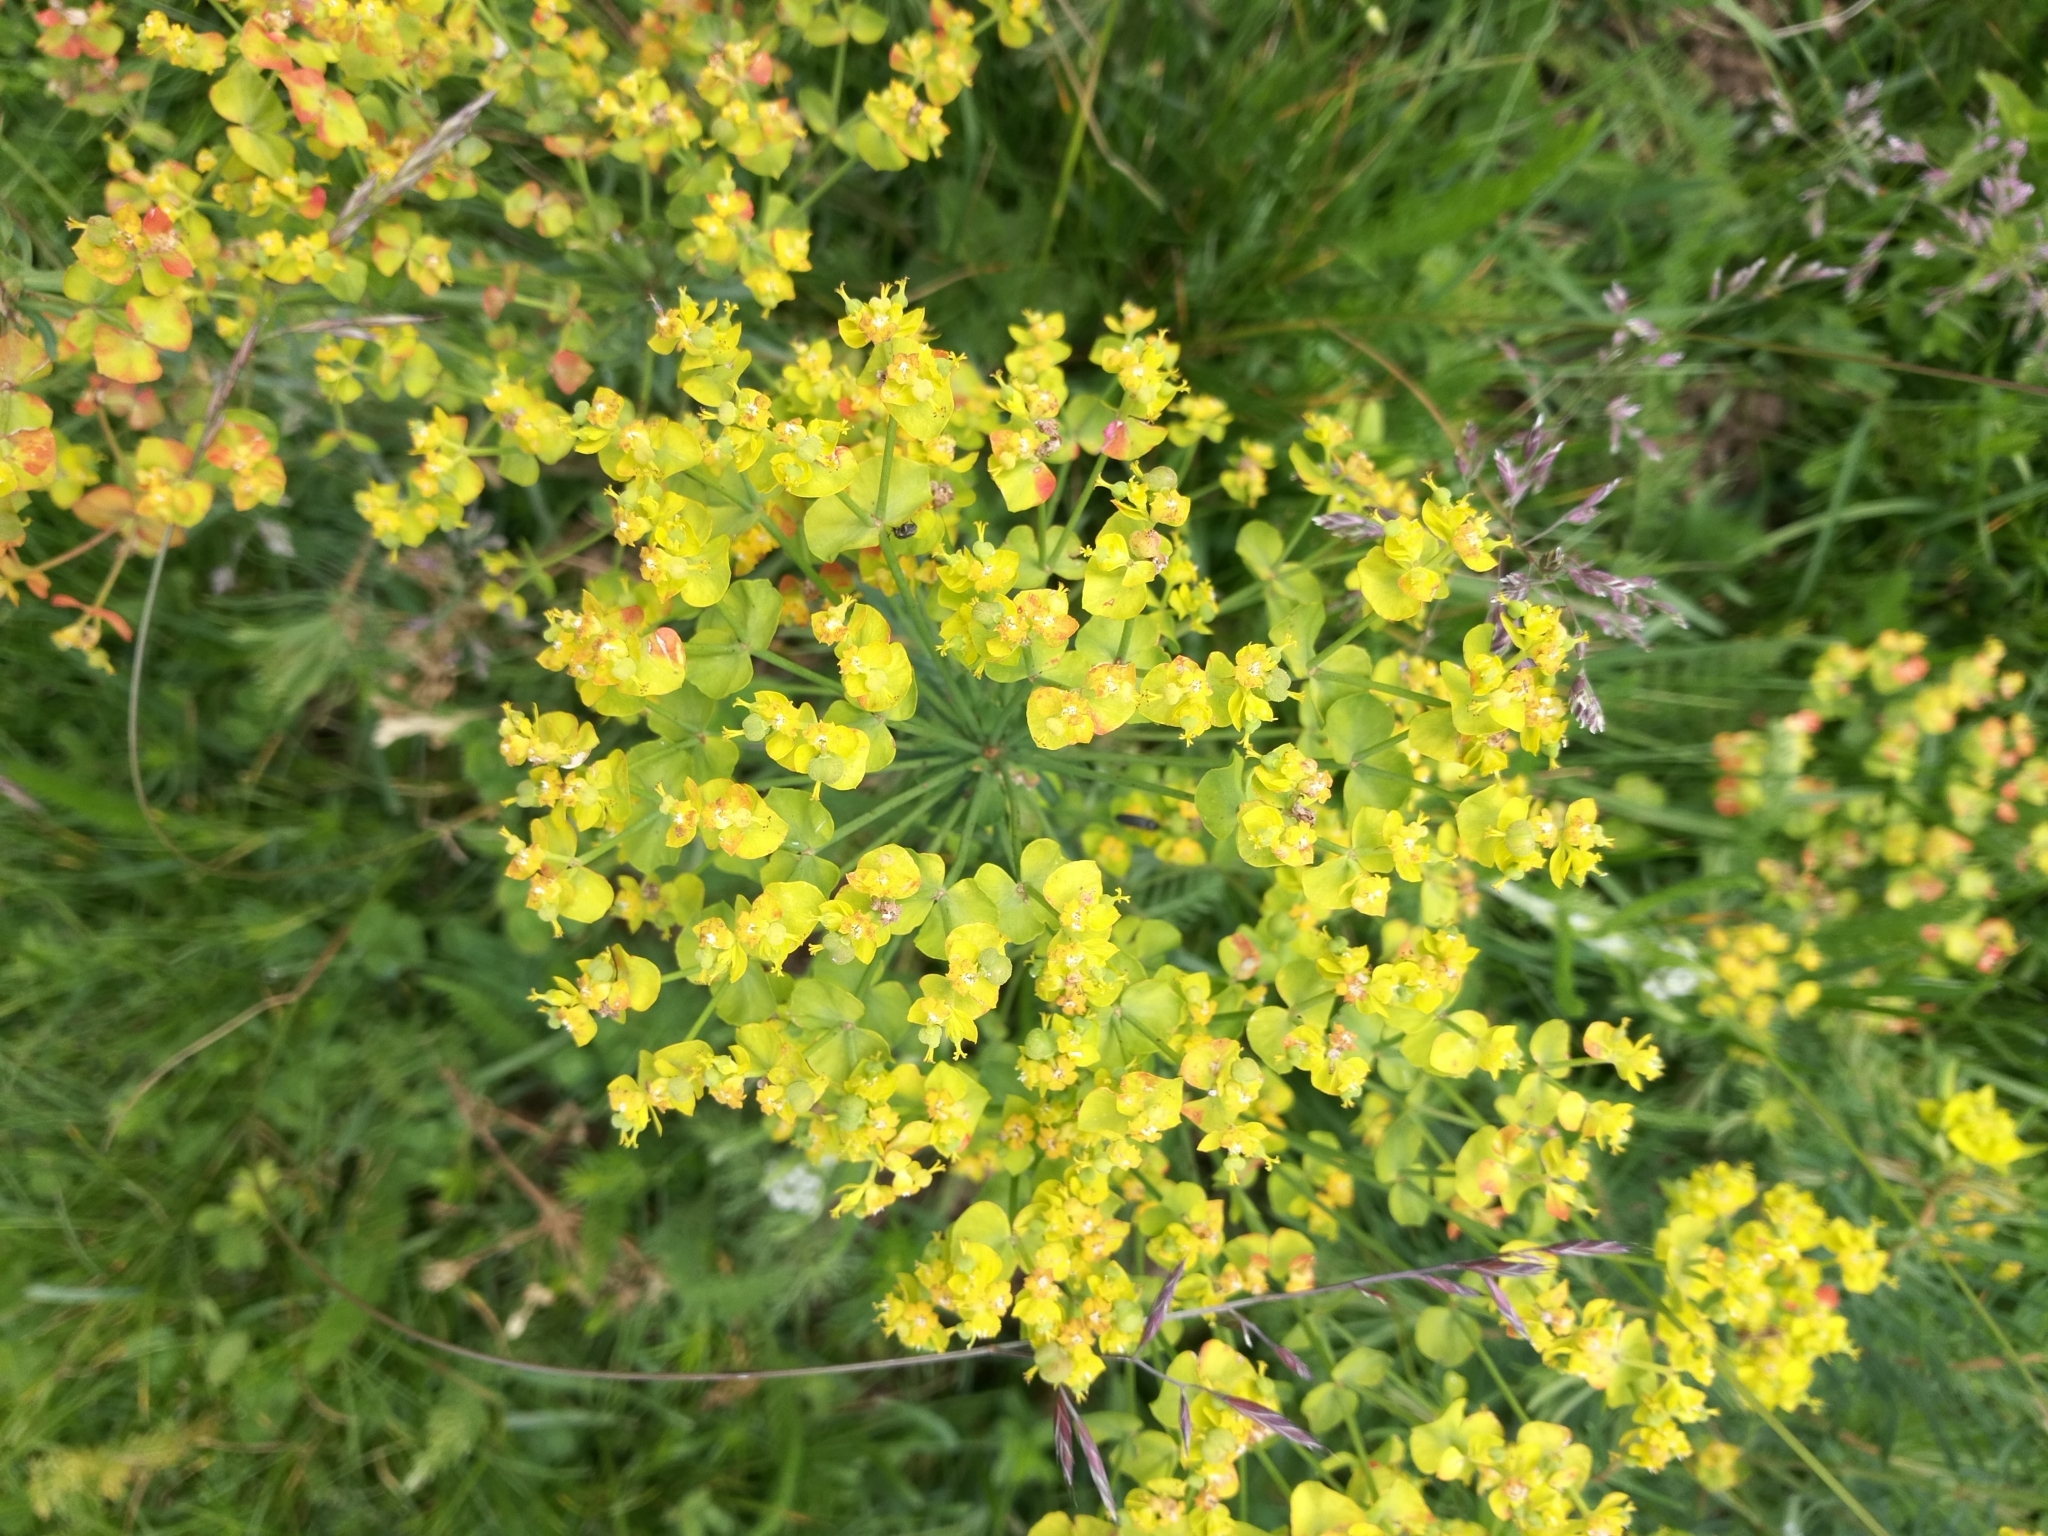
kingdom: Plantae
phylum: Tracheophyta
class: Magnoliopsida
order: Malpighiales
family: Euphorbiaceae
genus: Euphorbia
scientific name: Euphorbia cyparissias
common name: Cypress spurge
